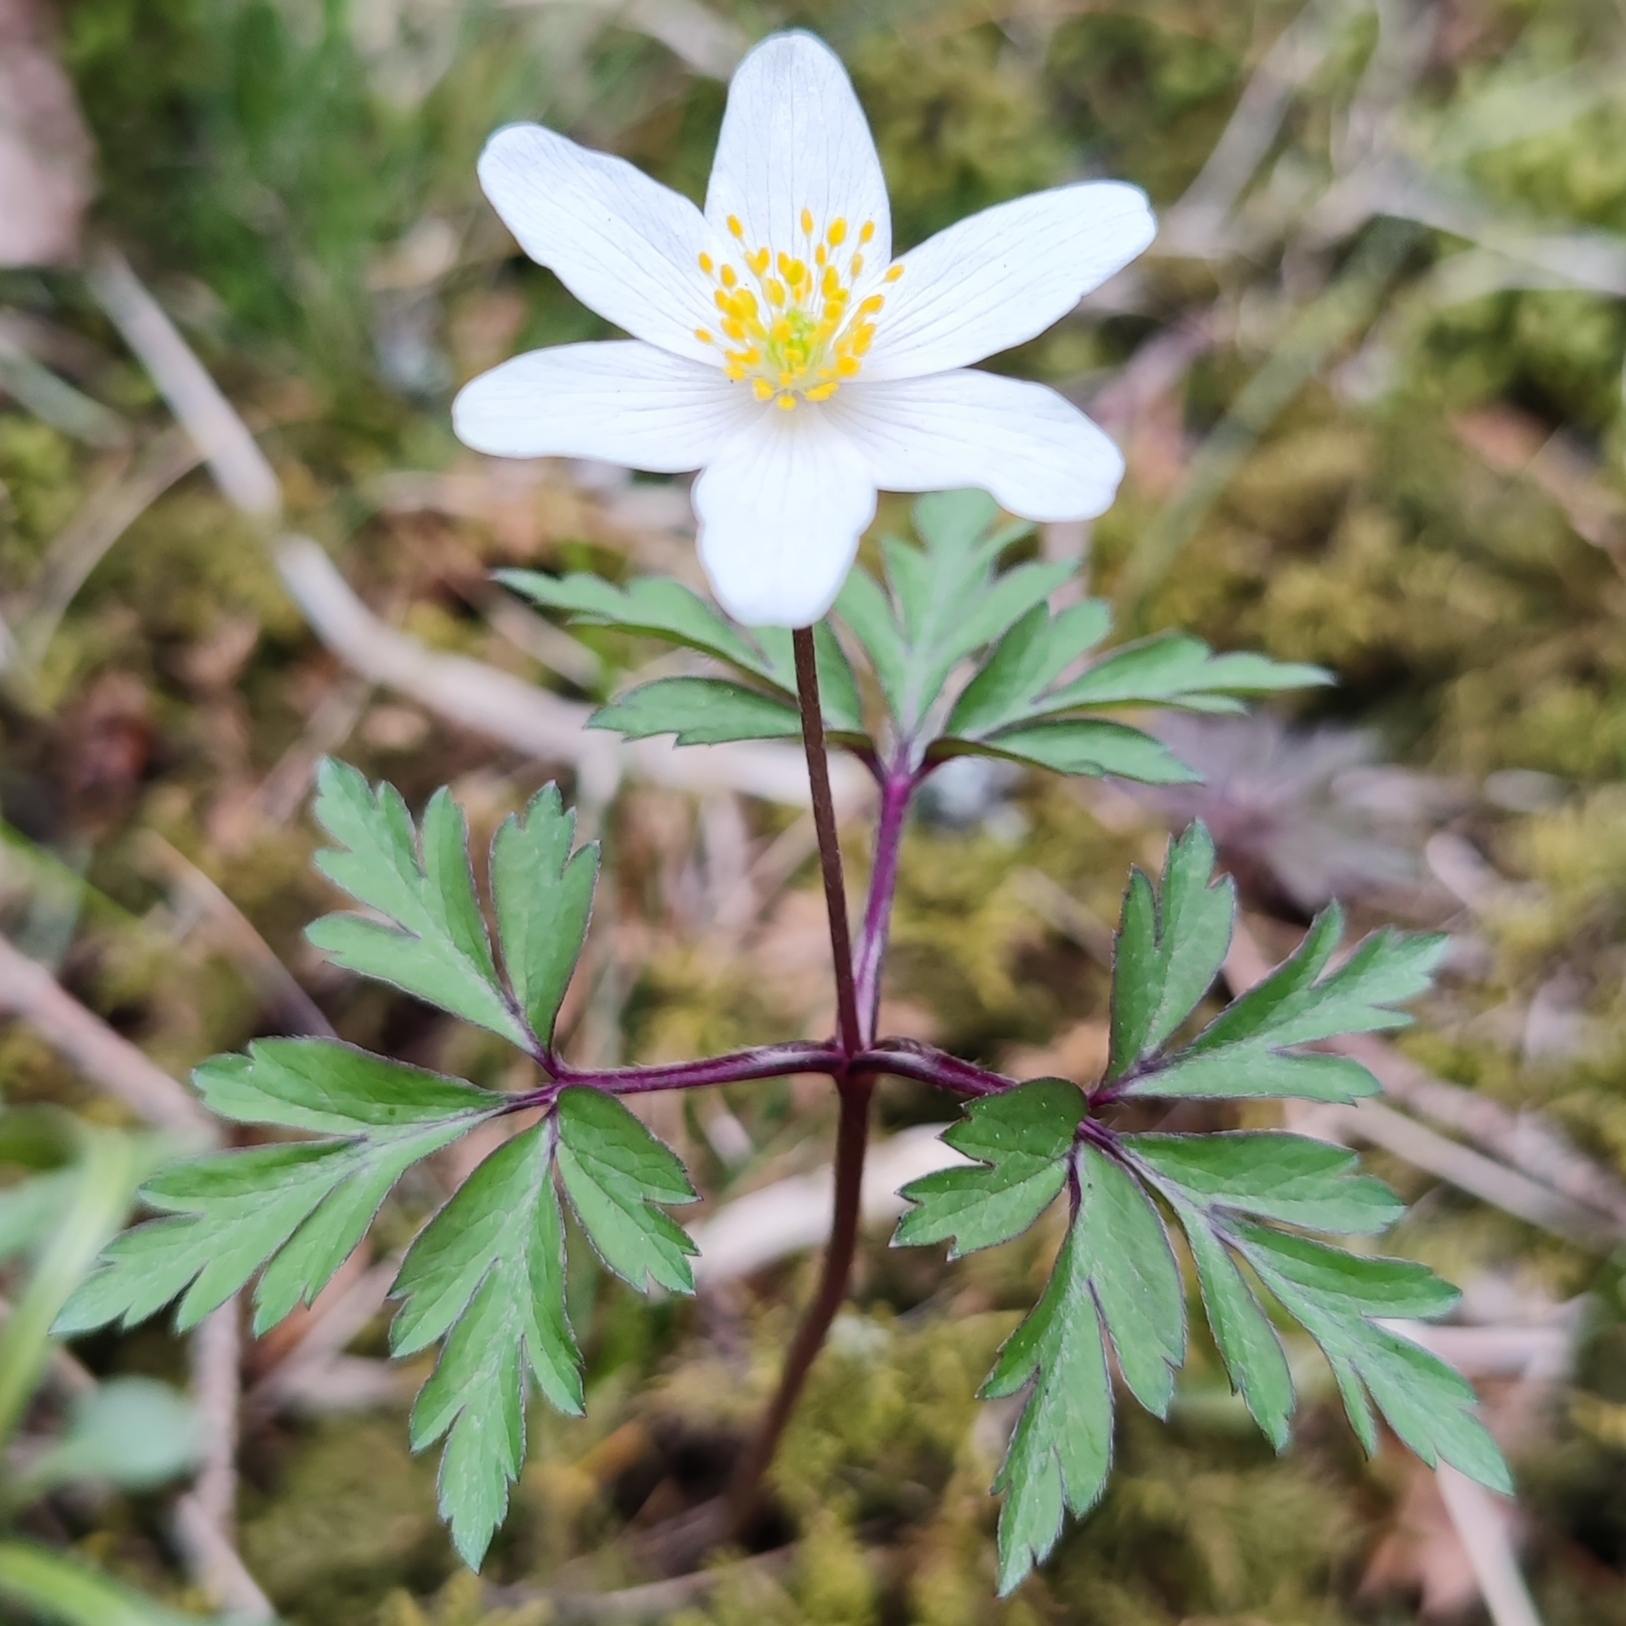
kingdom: Plantae
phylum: Tracheophyta
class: Magnoliopsida
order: Ranunculales
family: Ranunculaceae
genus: Anemone
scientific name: Anemone nemorosa
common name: Wood anemone
